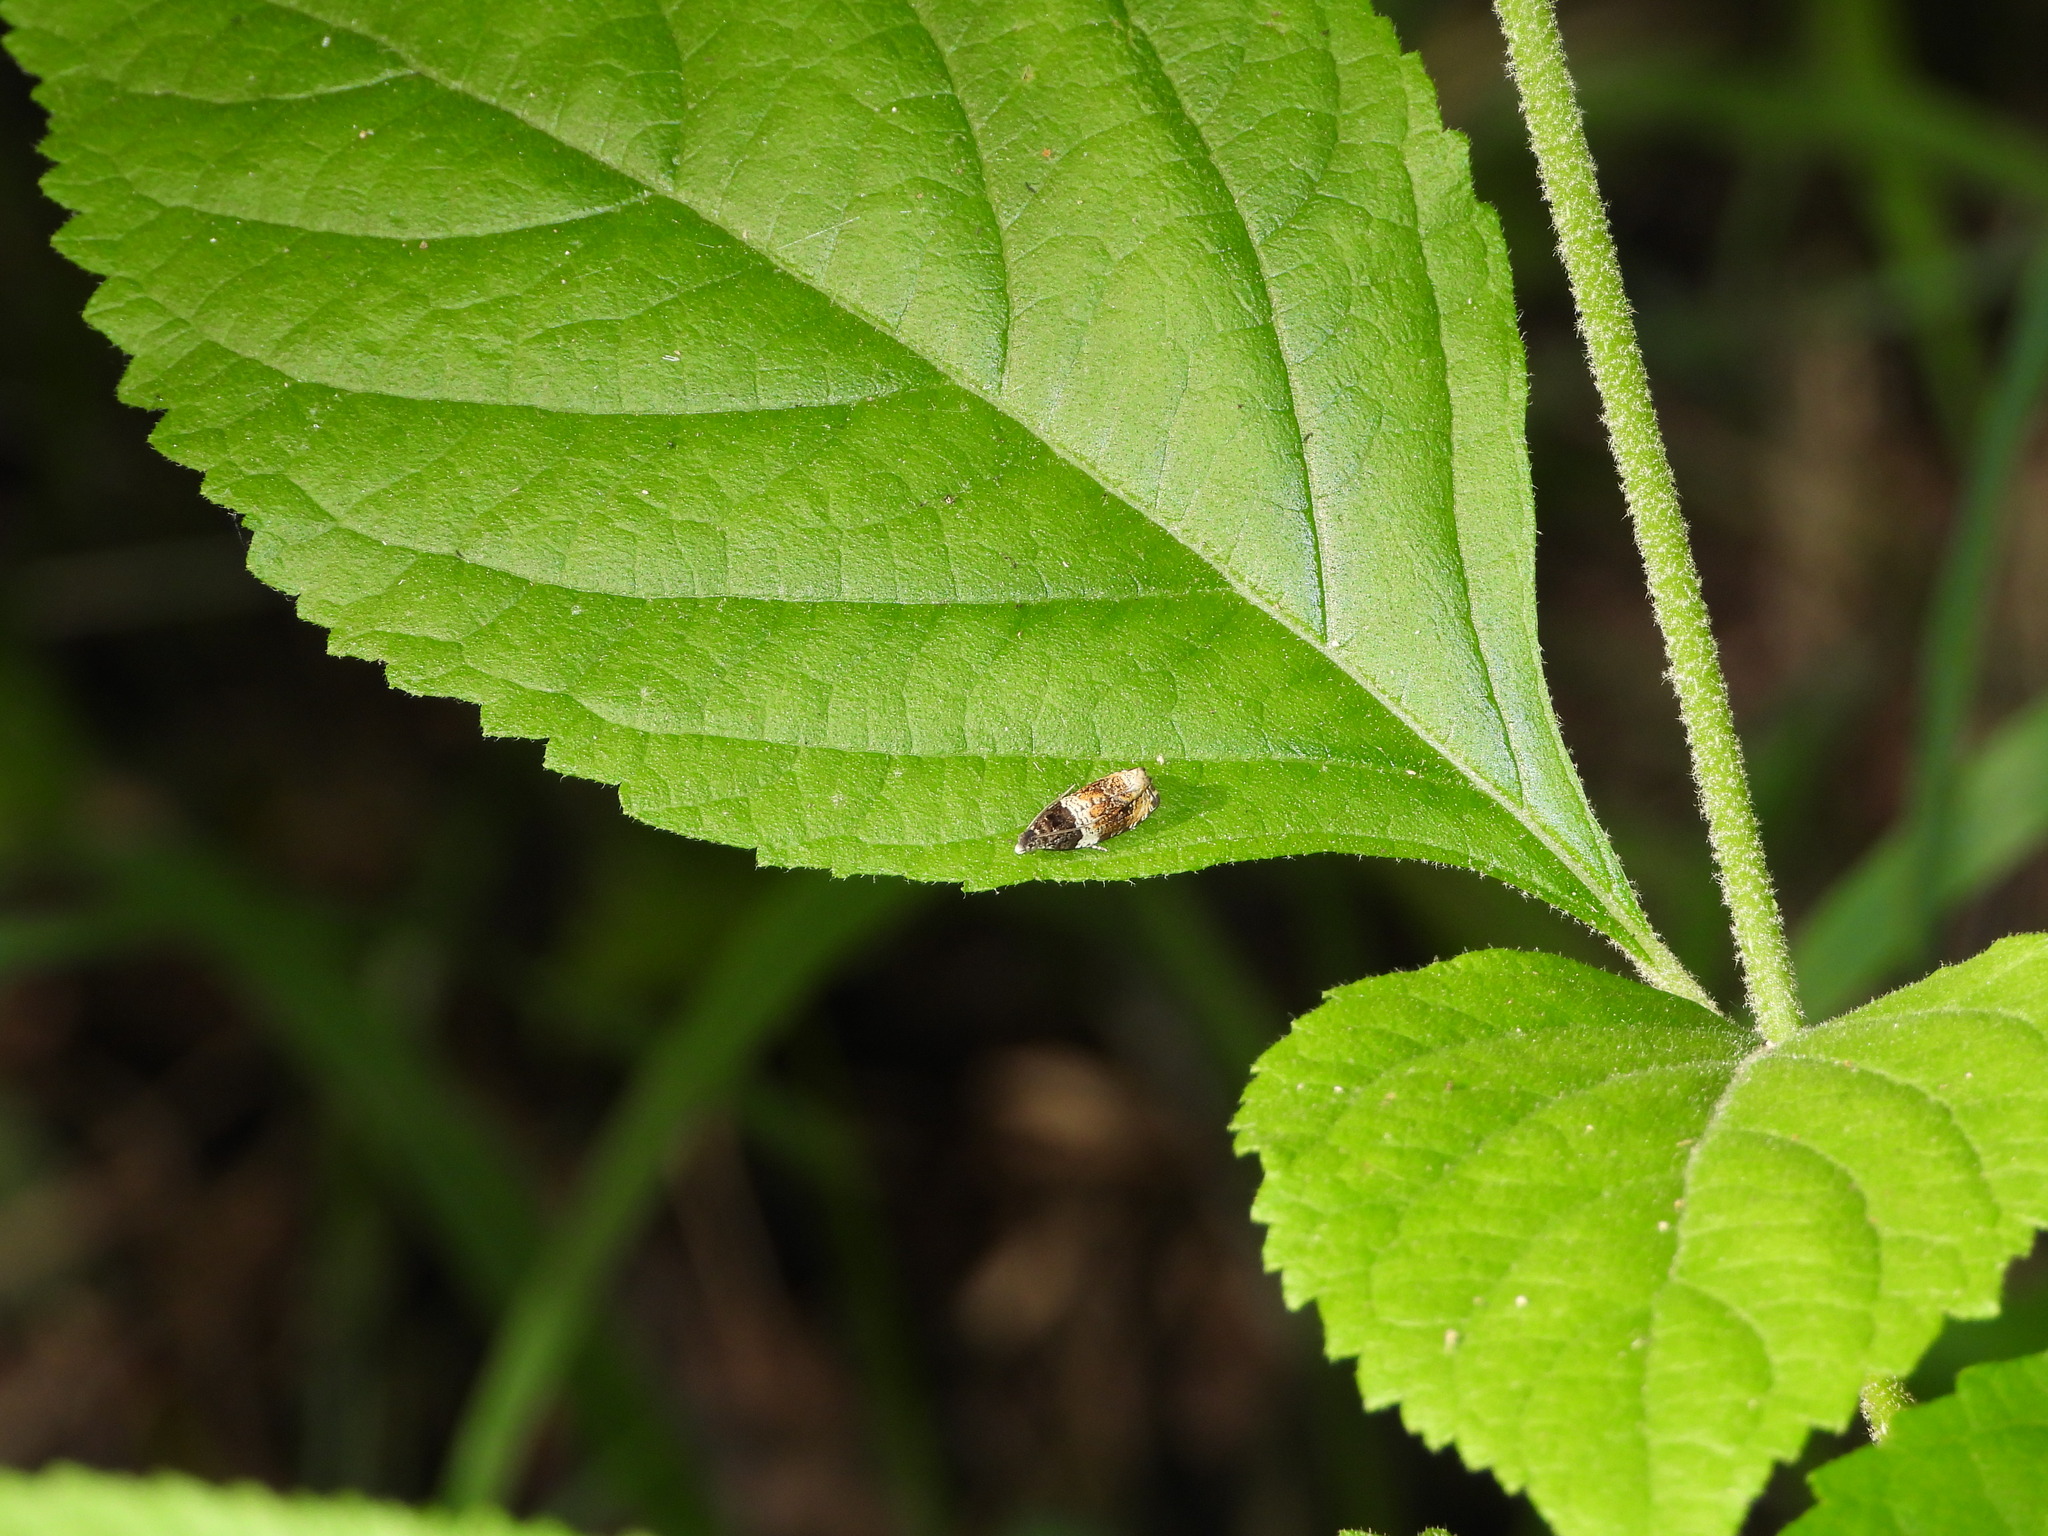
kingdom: Animalia
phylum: Arthropoda
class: Insecta
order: Lepidoptera
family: Tortricidae
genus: Olethreutes
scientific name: Olethreutes fasciatana
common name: Banded olethreutes moth
